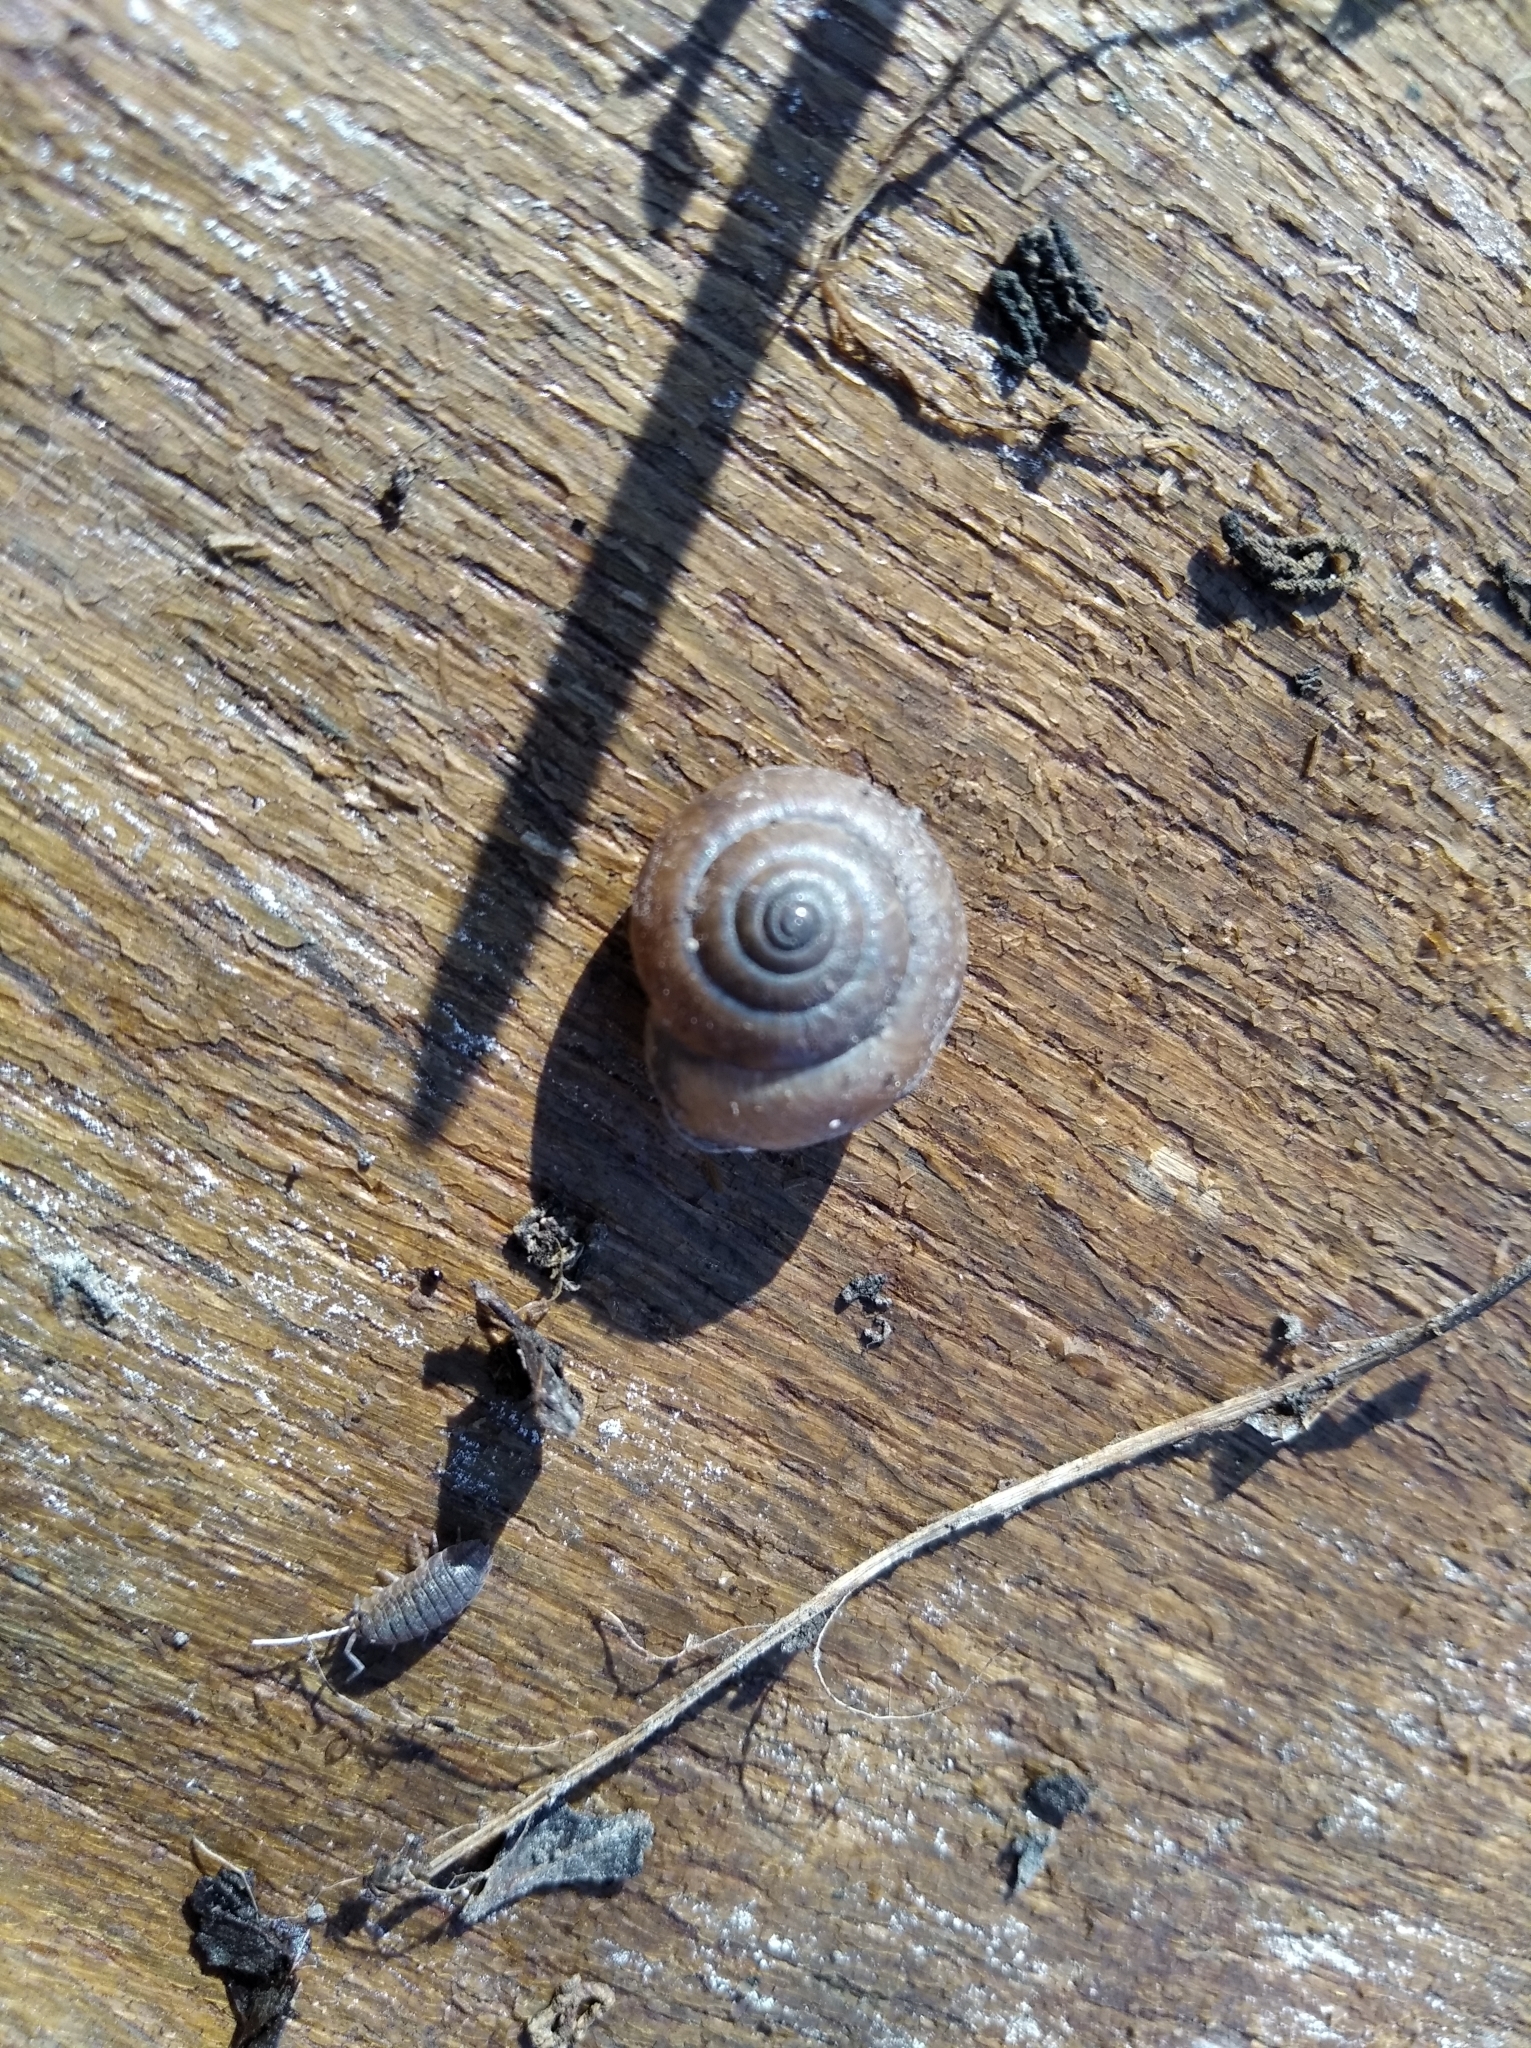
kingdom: Animalia
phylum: Mollusca
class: Gastropoda
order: Stylommatophora
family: Hygromiidae
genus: Euomphalia
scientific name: Euomphalia strigella
